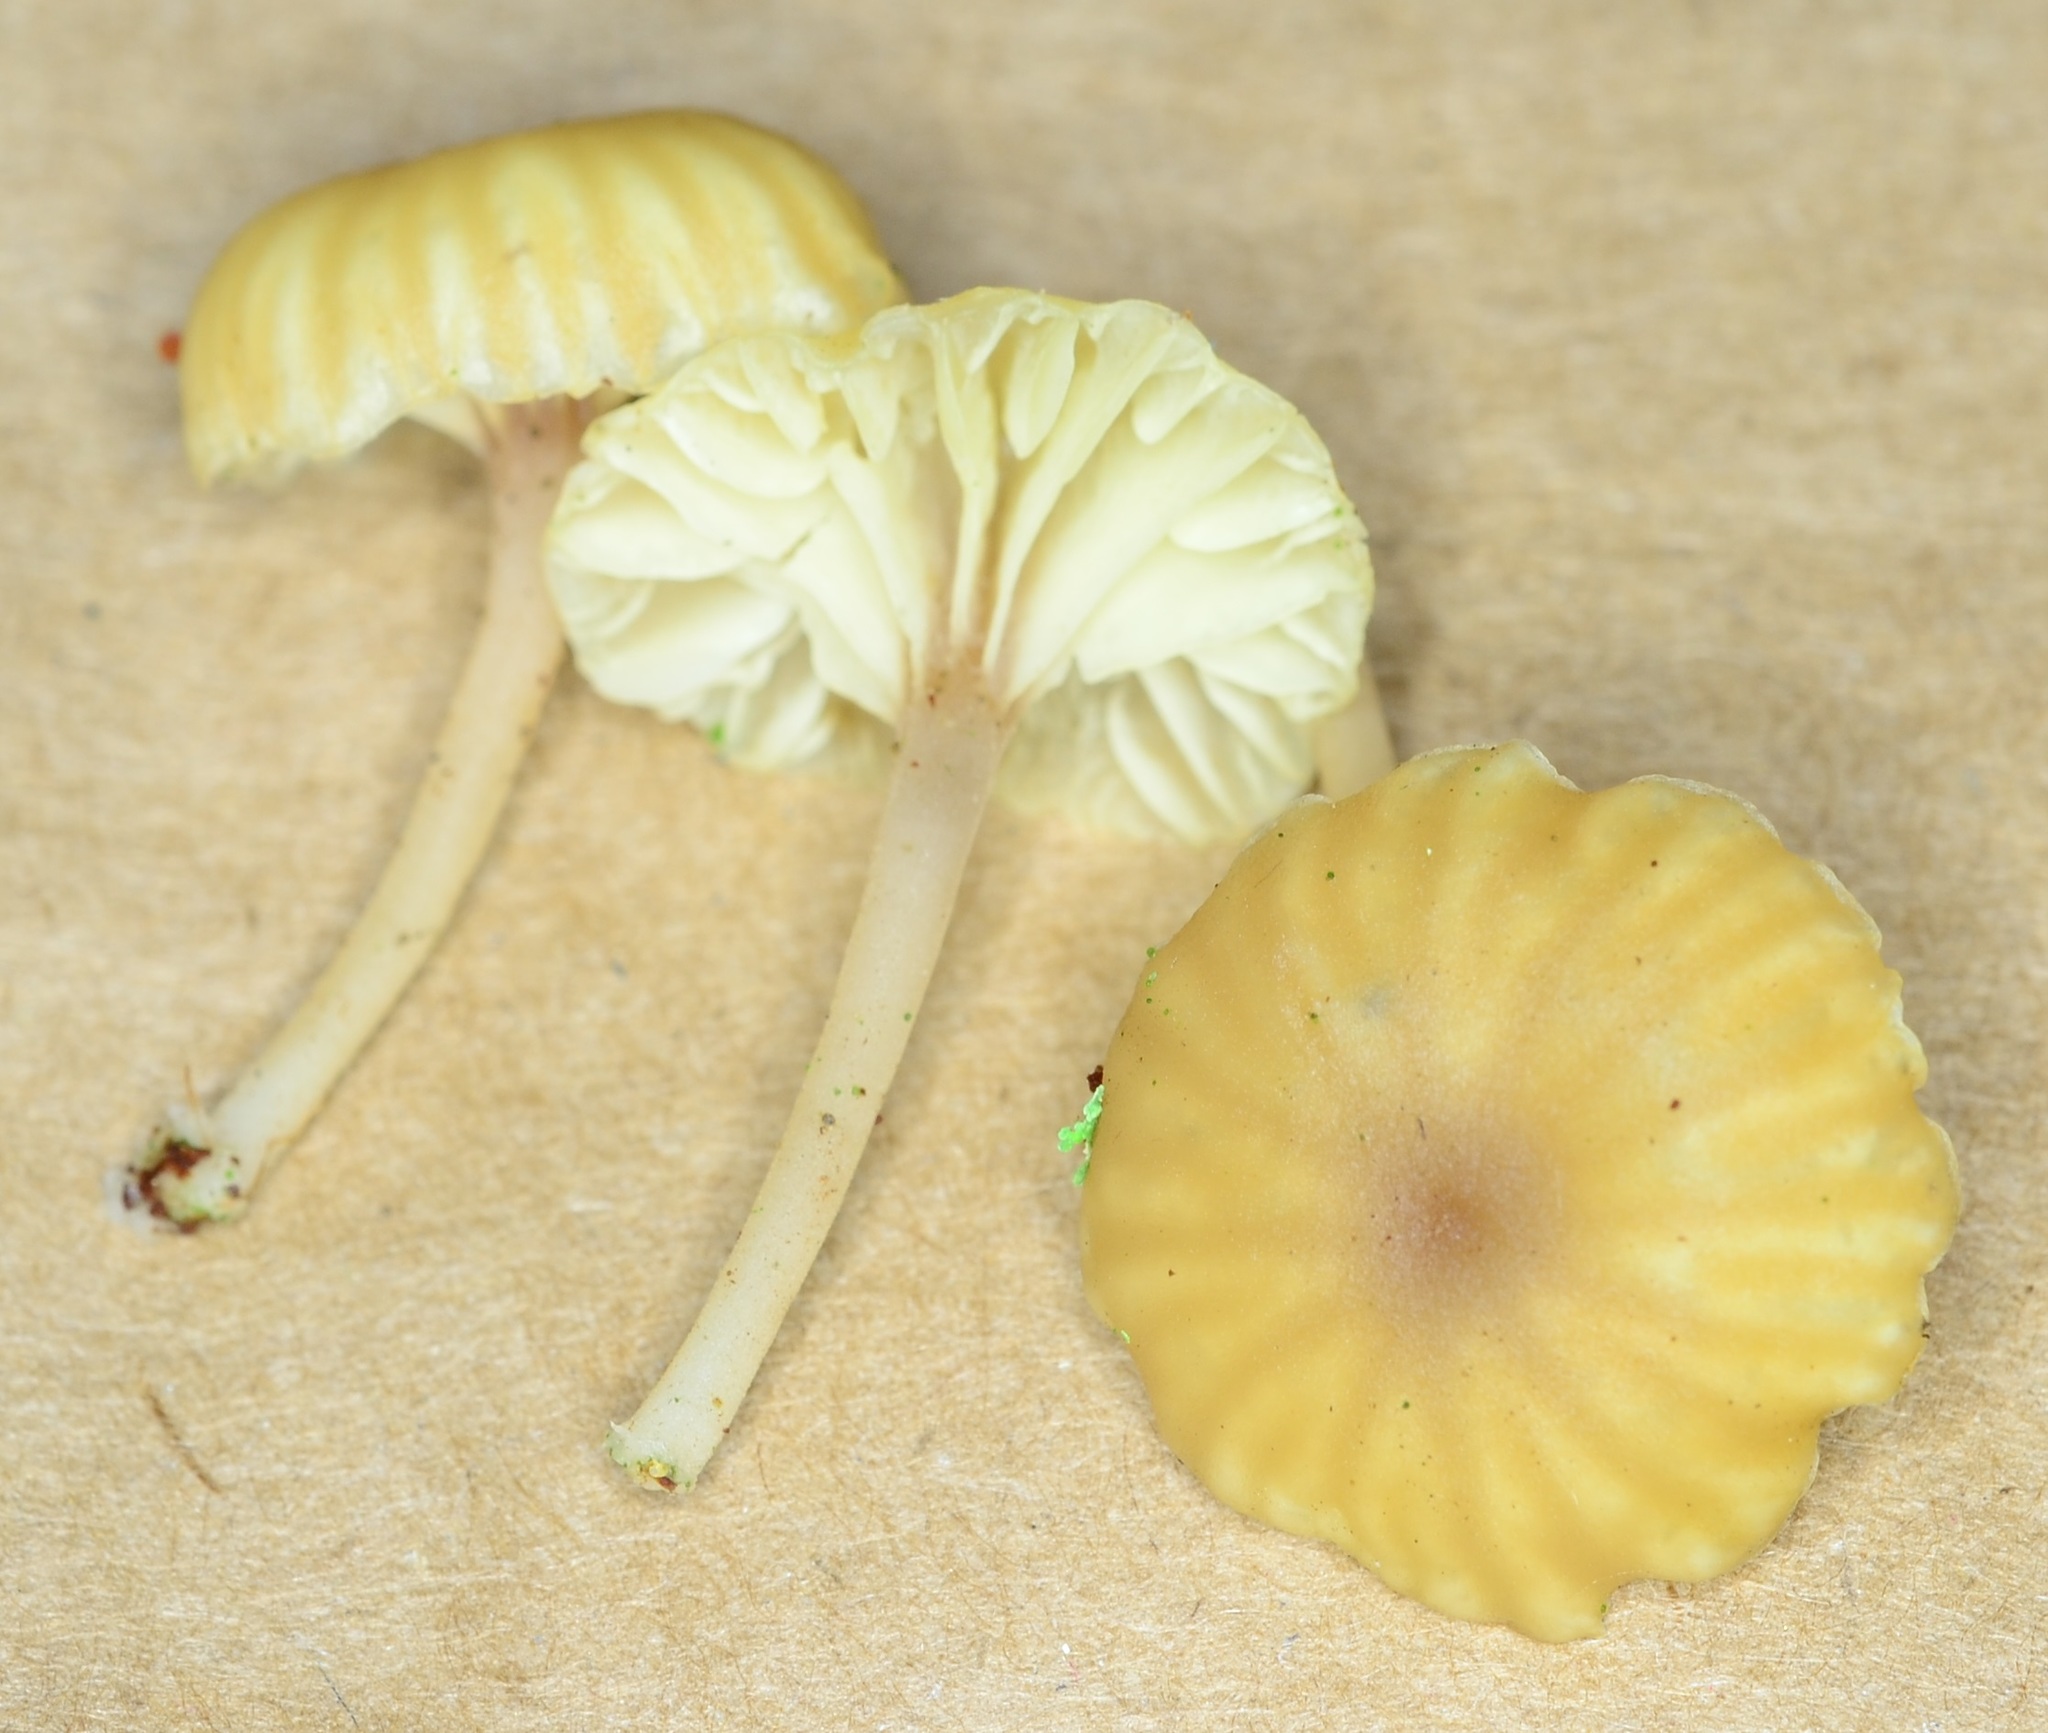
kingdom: Fungi
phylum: Basidiomycota
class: Agaricomycetes
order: Agaricales
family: Hygrophoraceae
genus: Lichenomphalia
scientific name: Lichenomphalia
